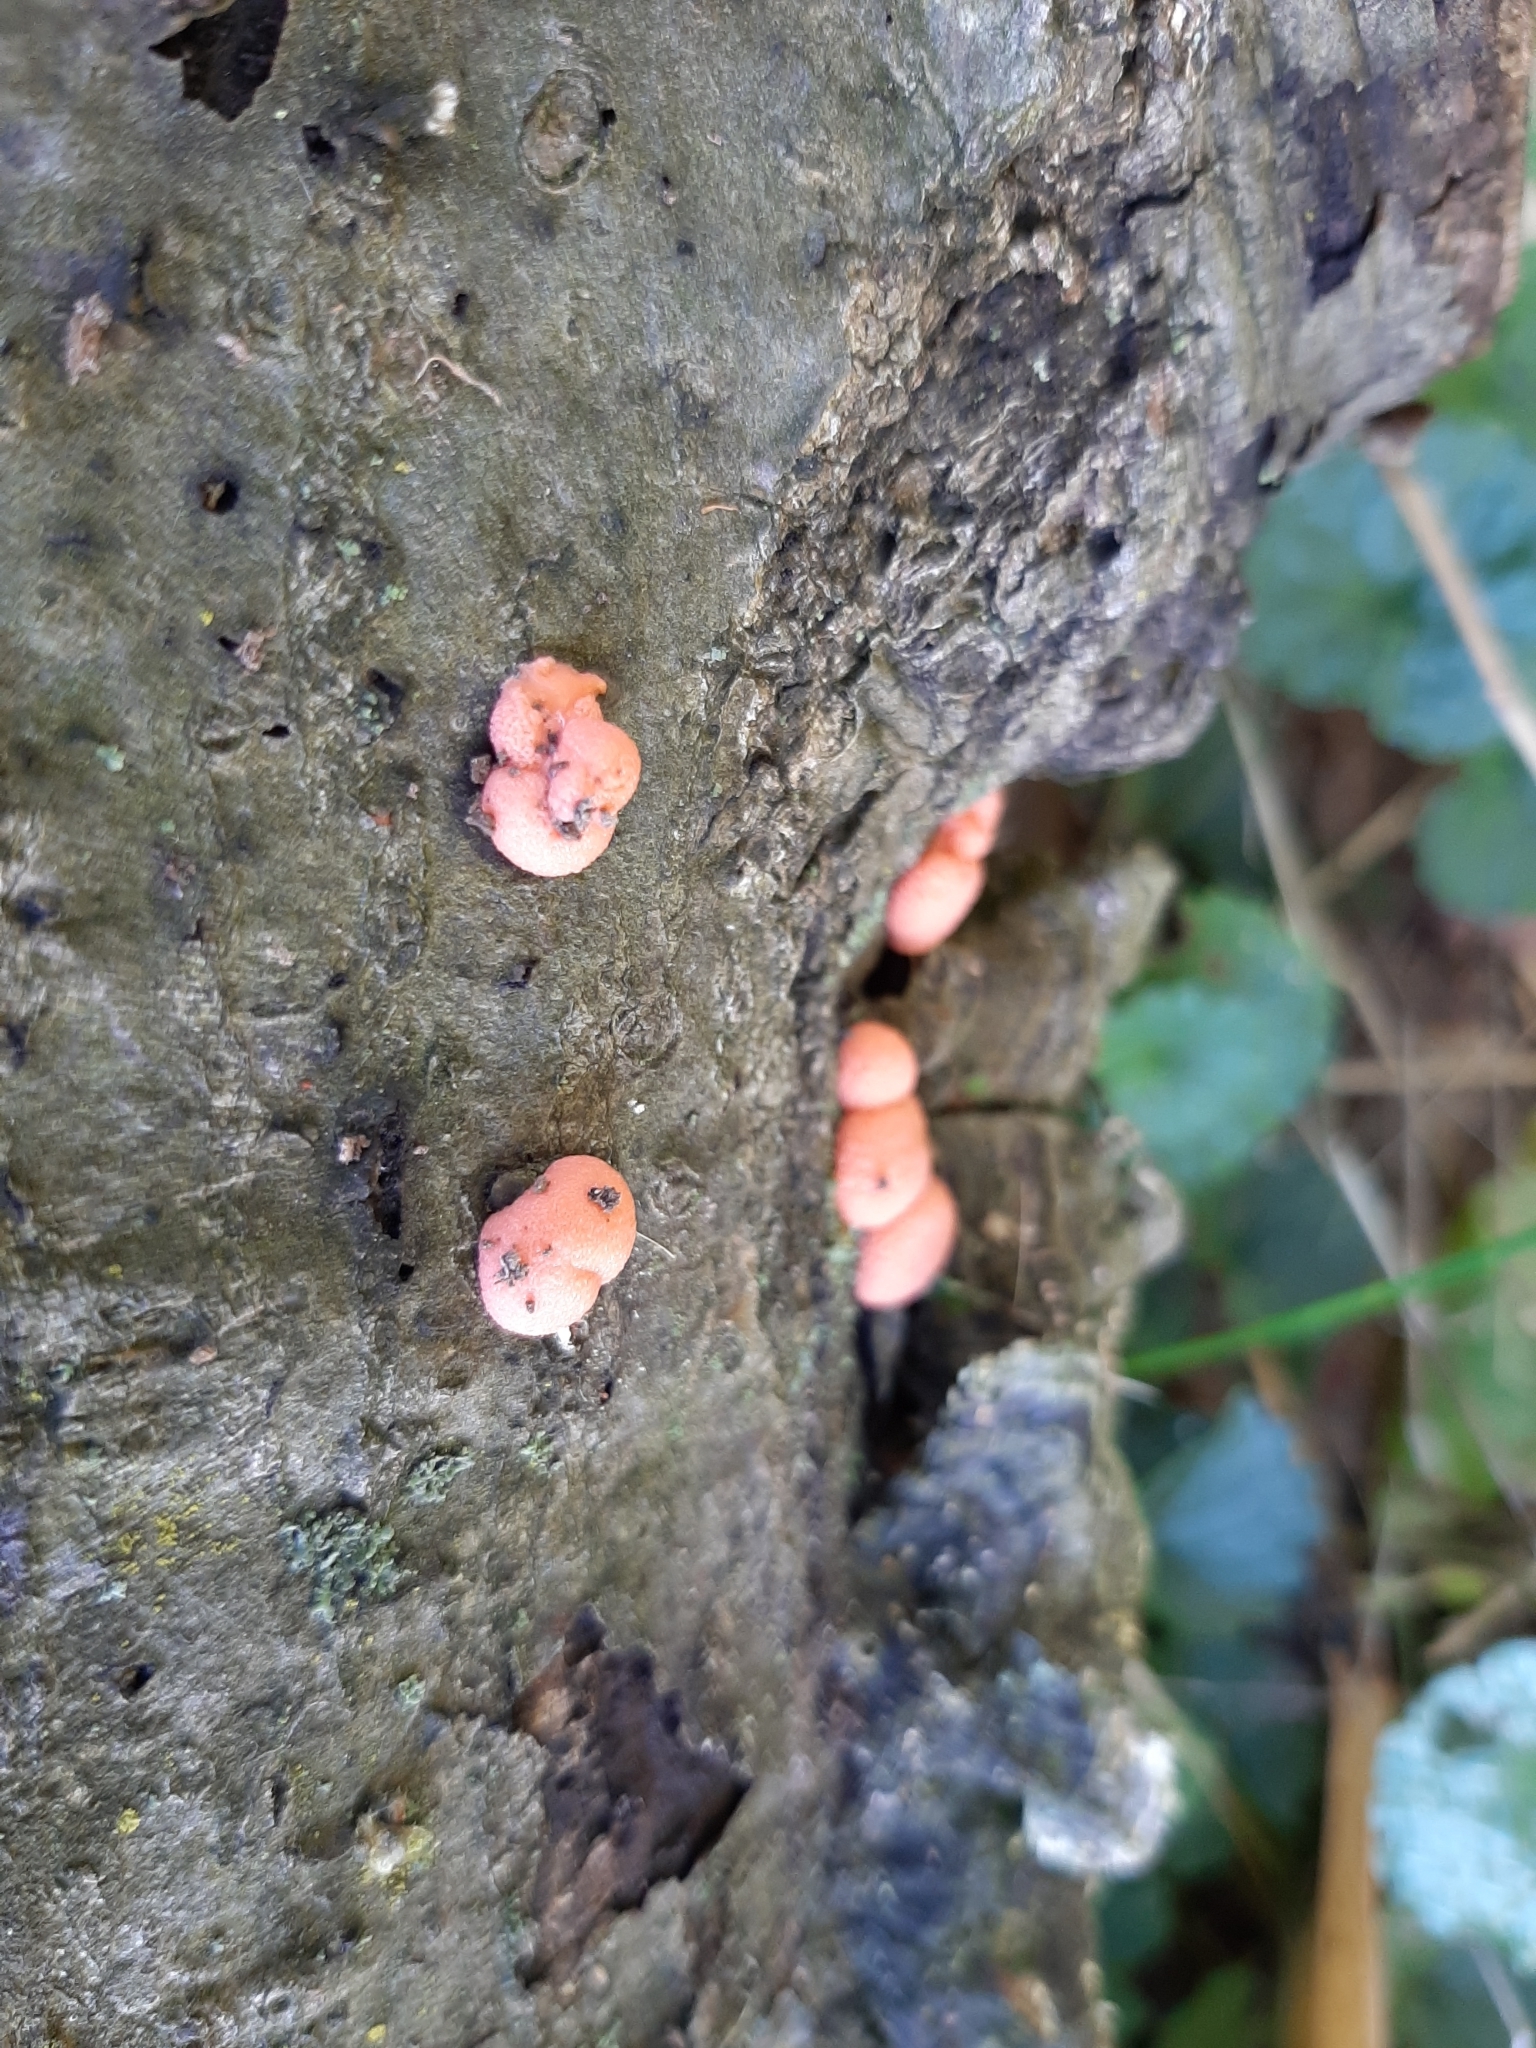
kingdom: Protozoa
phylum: Mycetozoa
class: Myxomycetes
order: Cribrariales
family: Tubiferaceae
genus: Lycogala
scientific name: Lycogala epidendrum
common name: Wolf's milk
